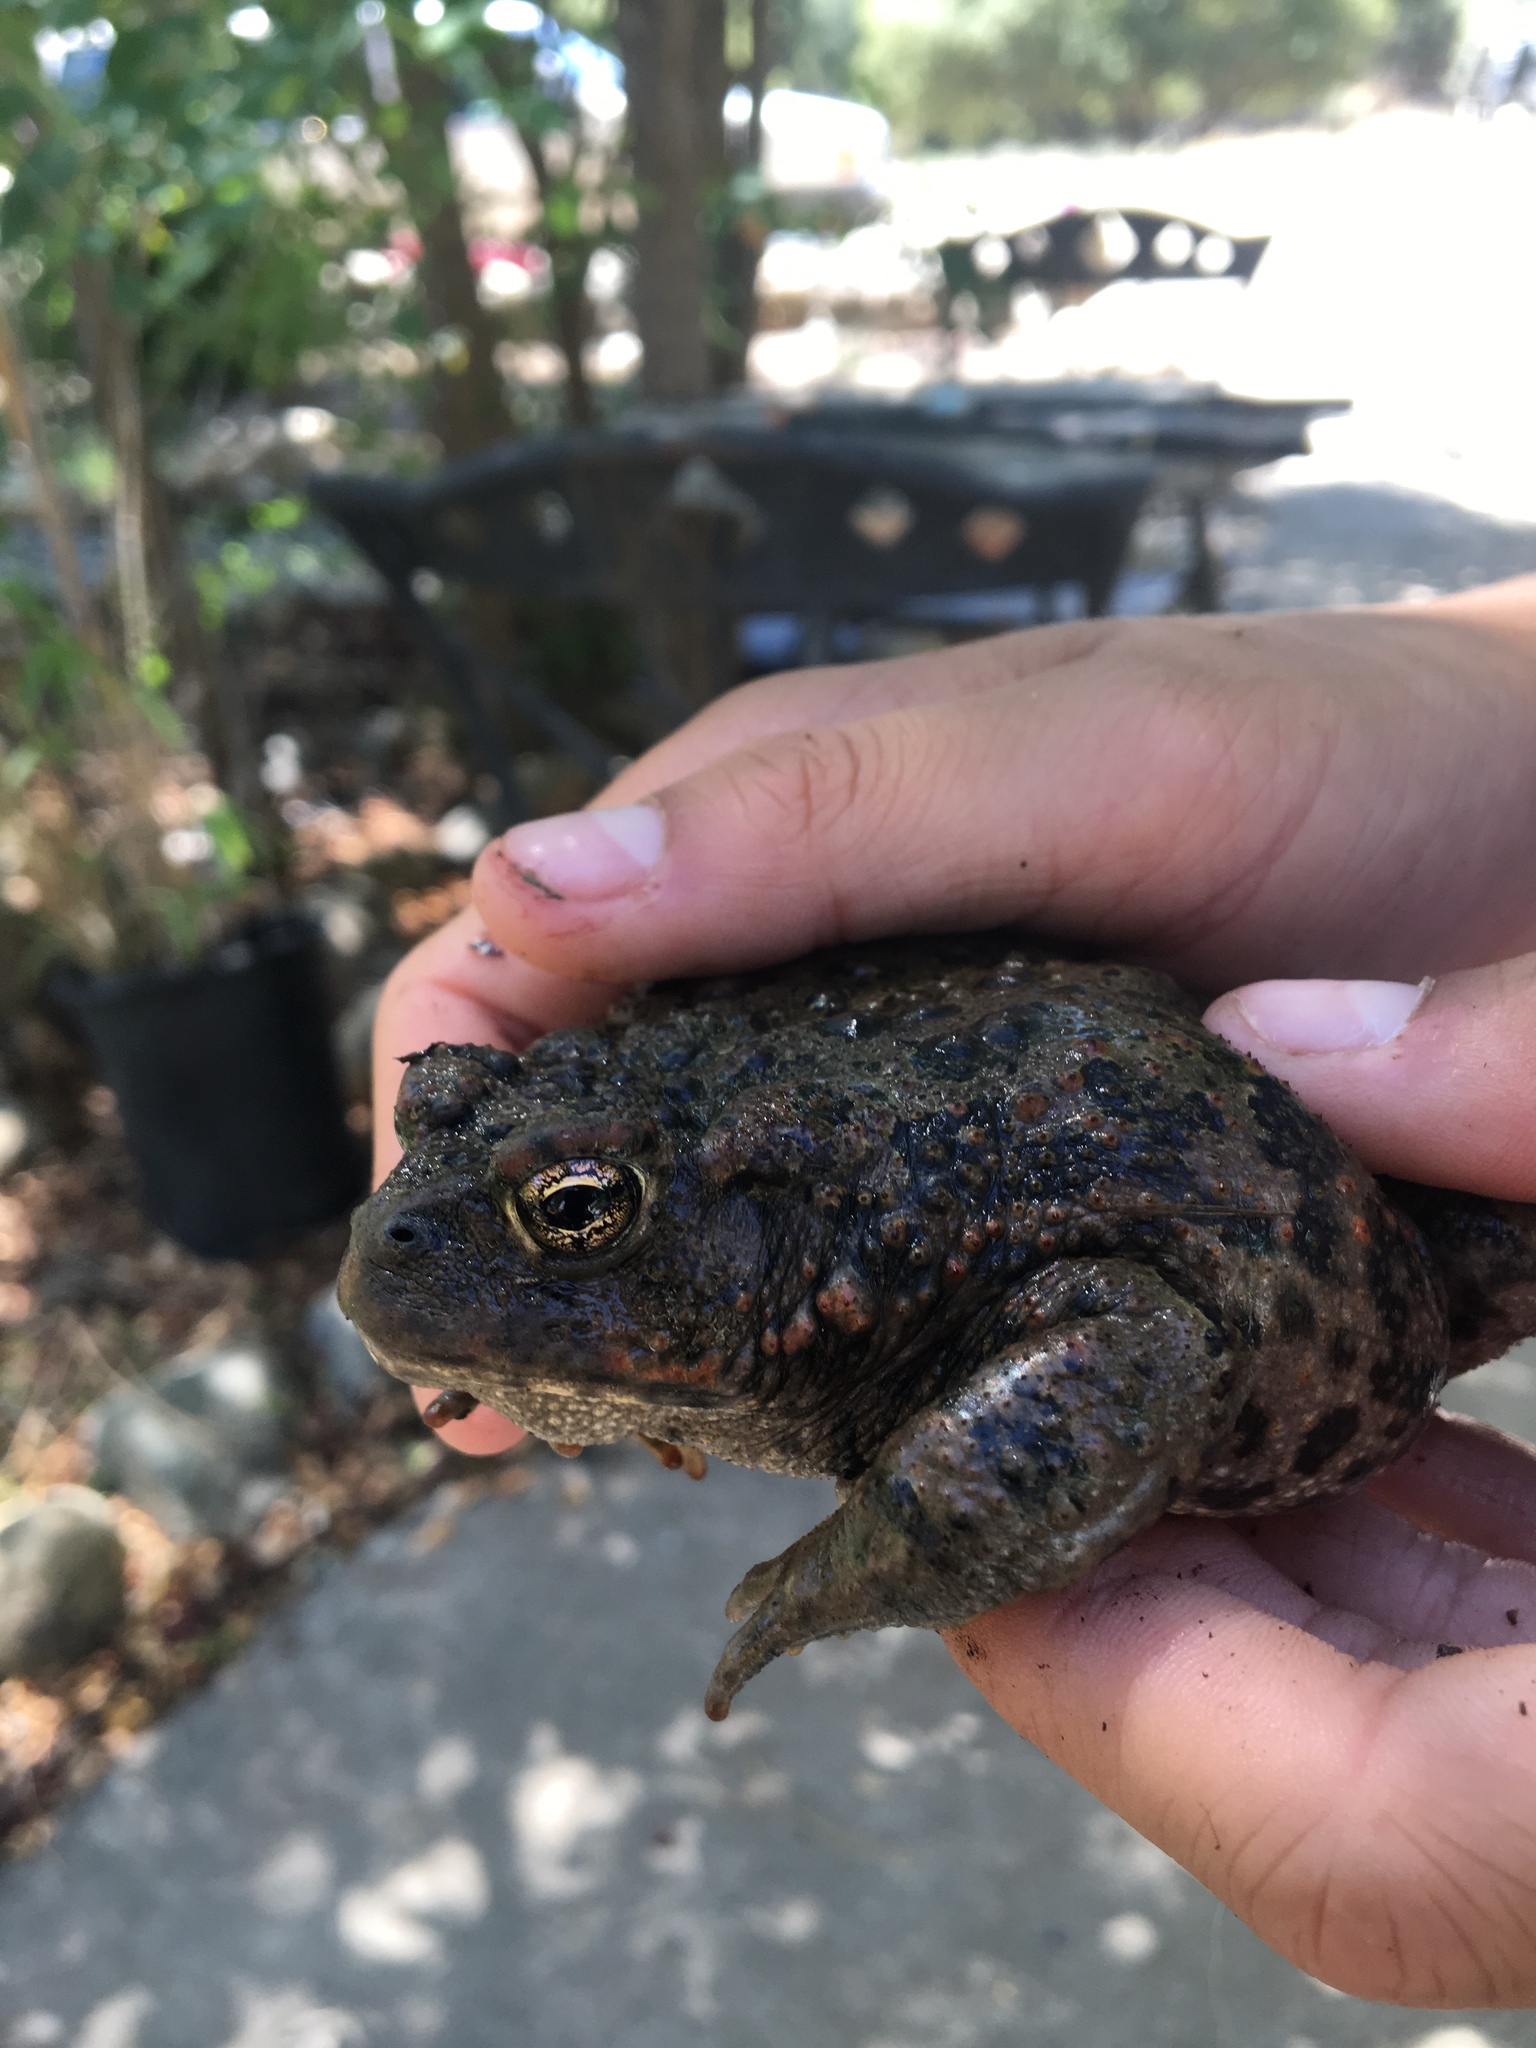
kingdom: Animalia
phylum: Chordata
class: Amphibia
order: Anura
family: Bufonidae
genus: Anaxyrus
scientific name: Anaxyrus boreas
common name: Western toad
